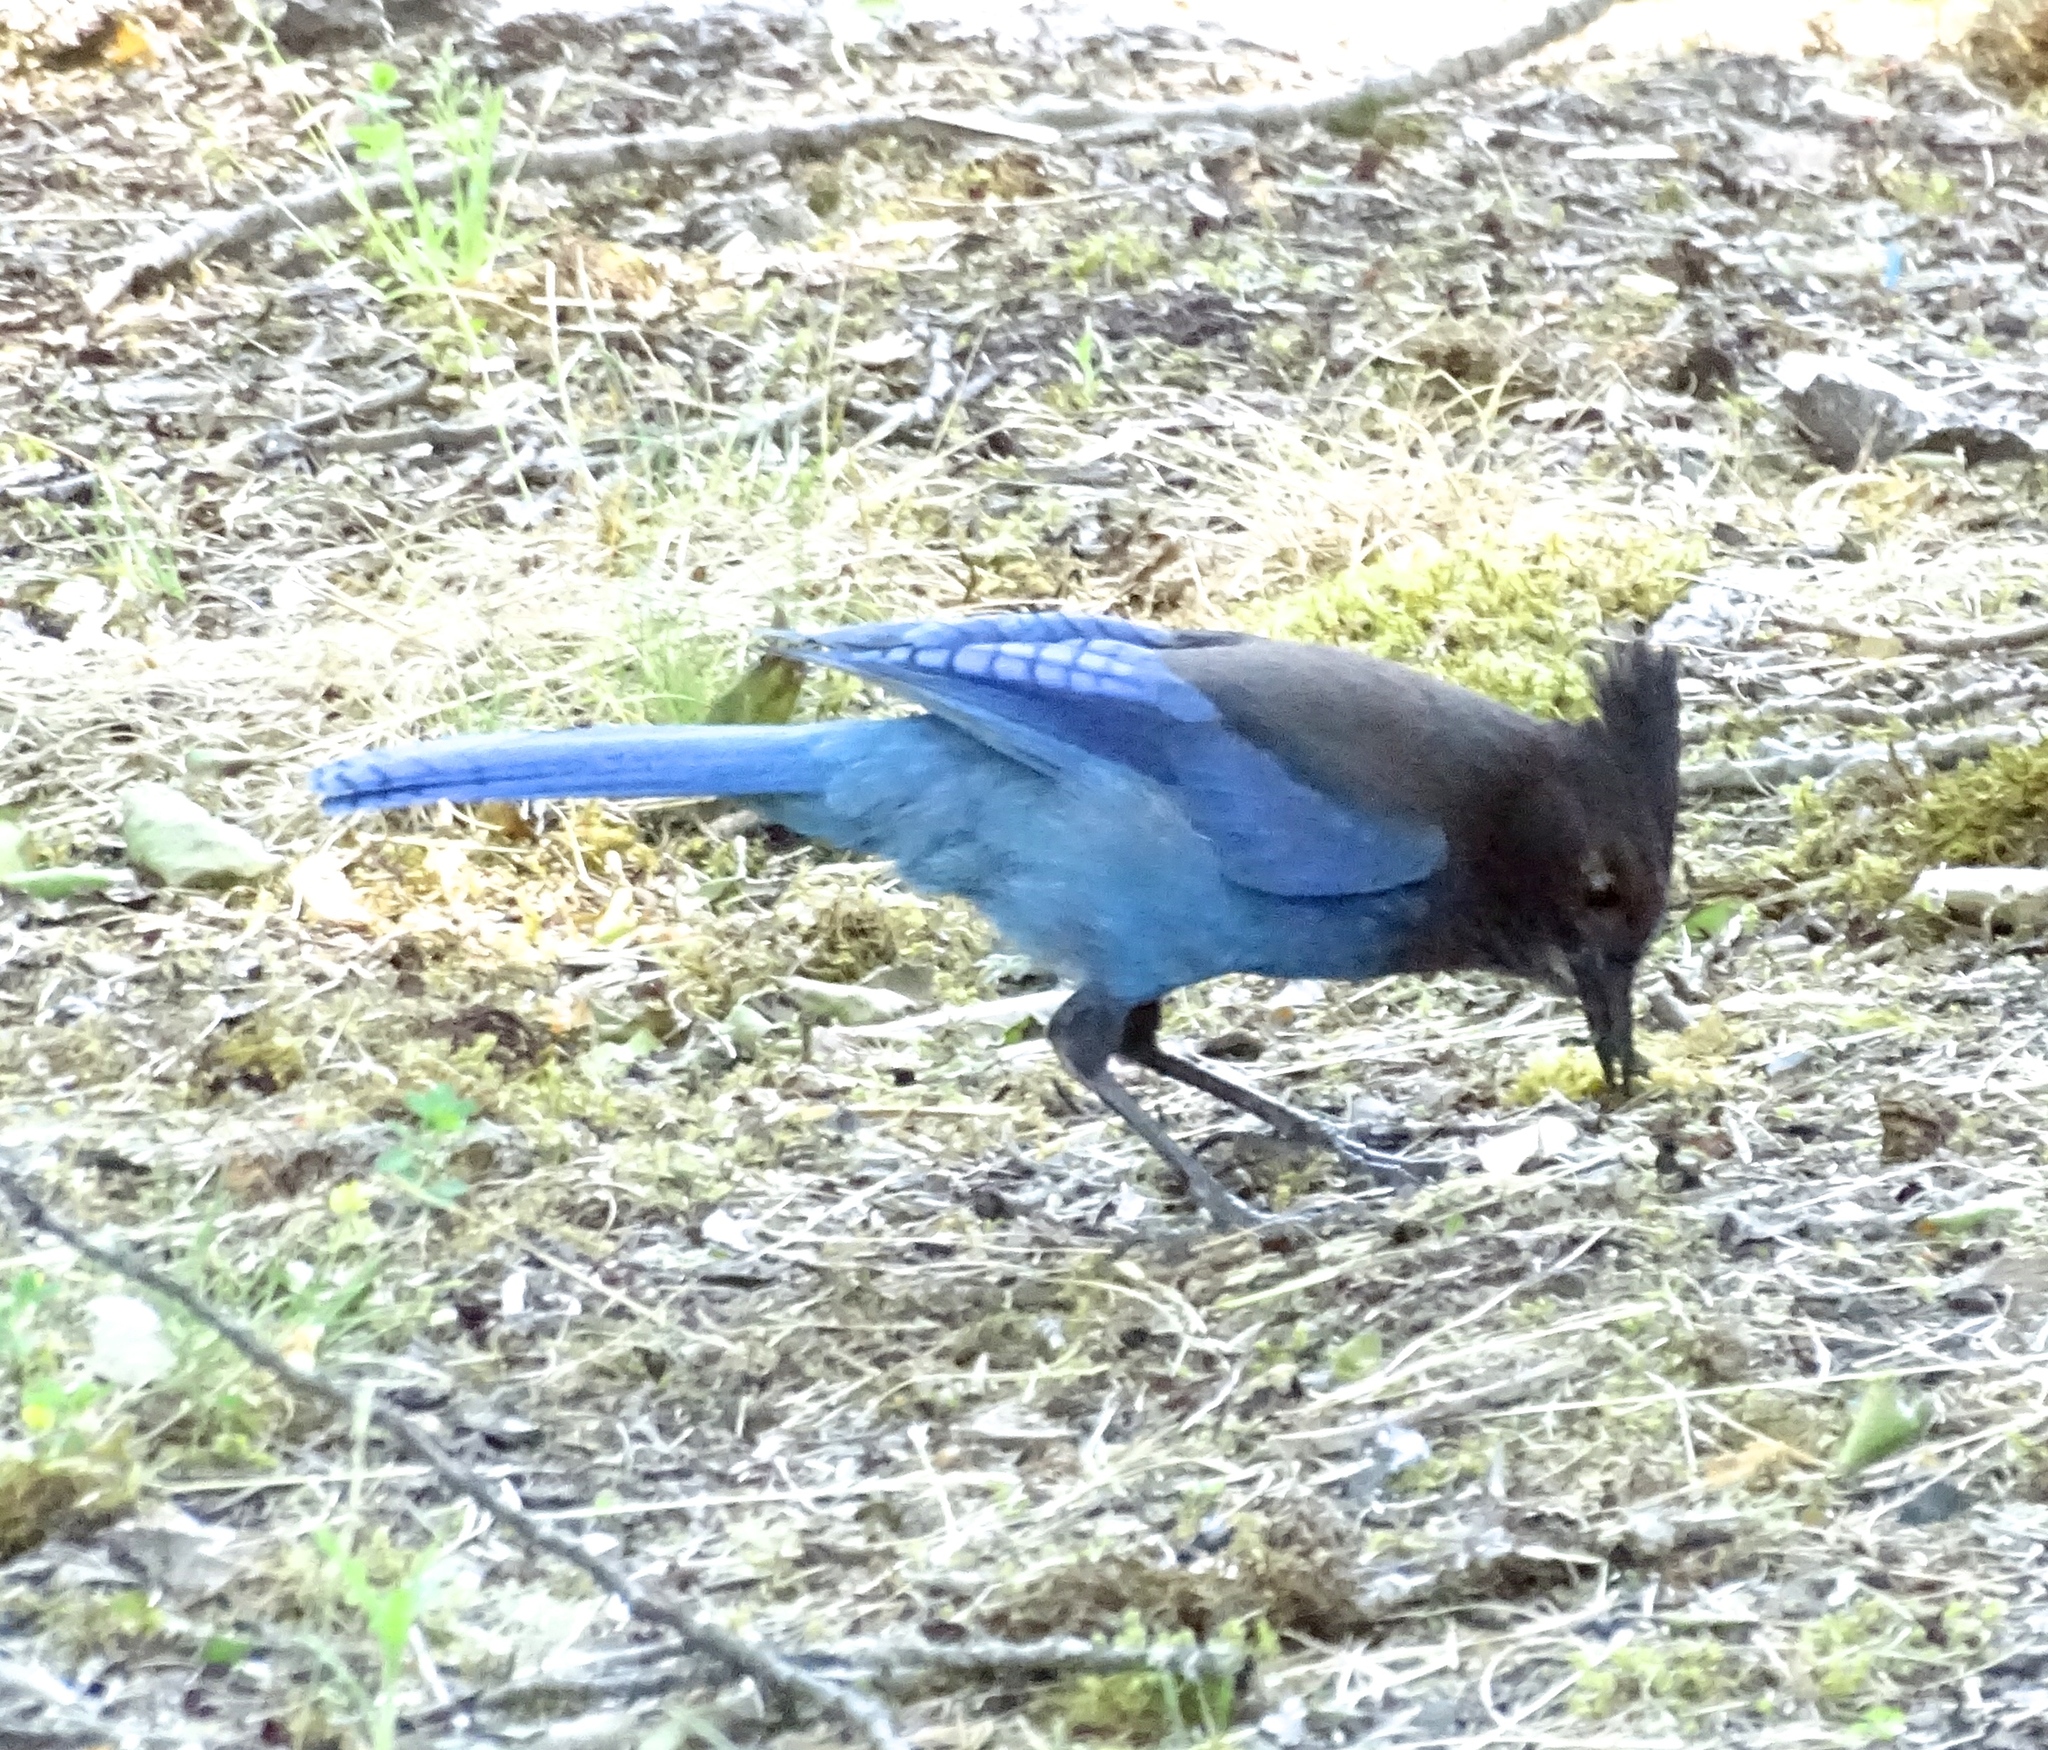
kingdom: Animalia
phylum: Chordata
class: Aves
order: Passeriformes
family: Corvidae
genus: Cyanocitta
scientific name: Cyanocitta stelleri
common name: Steller's jay
